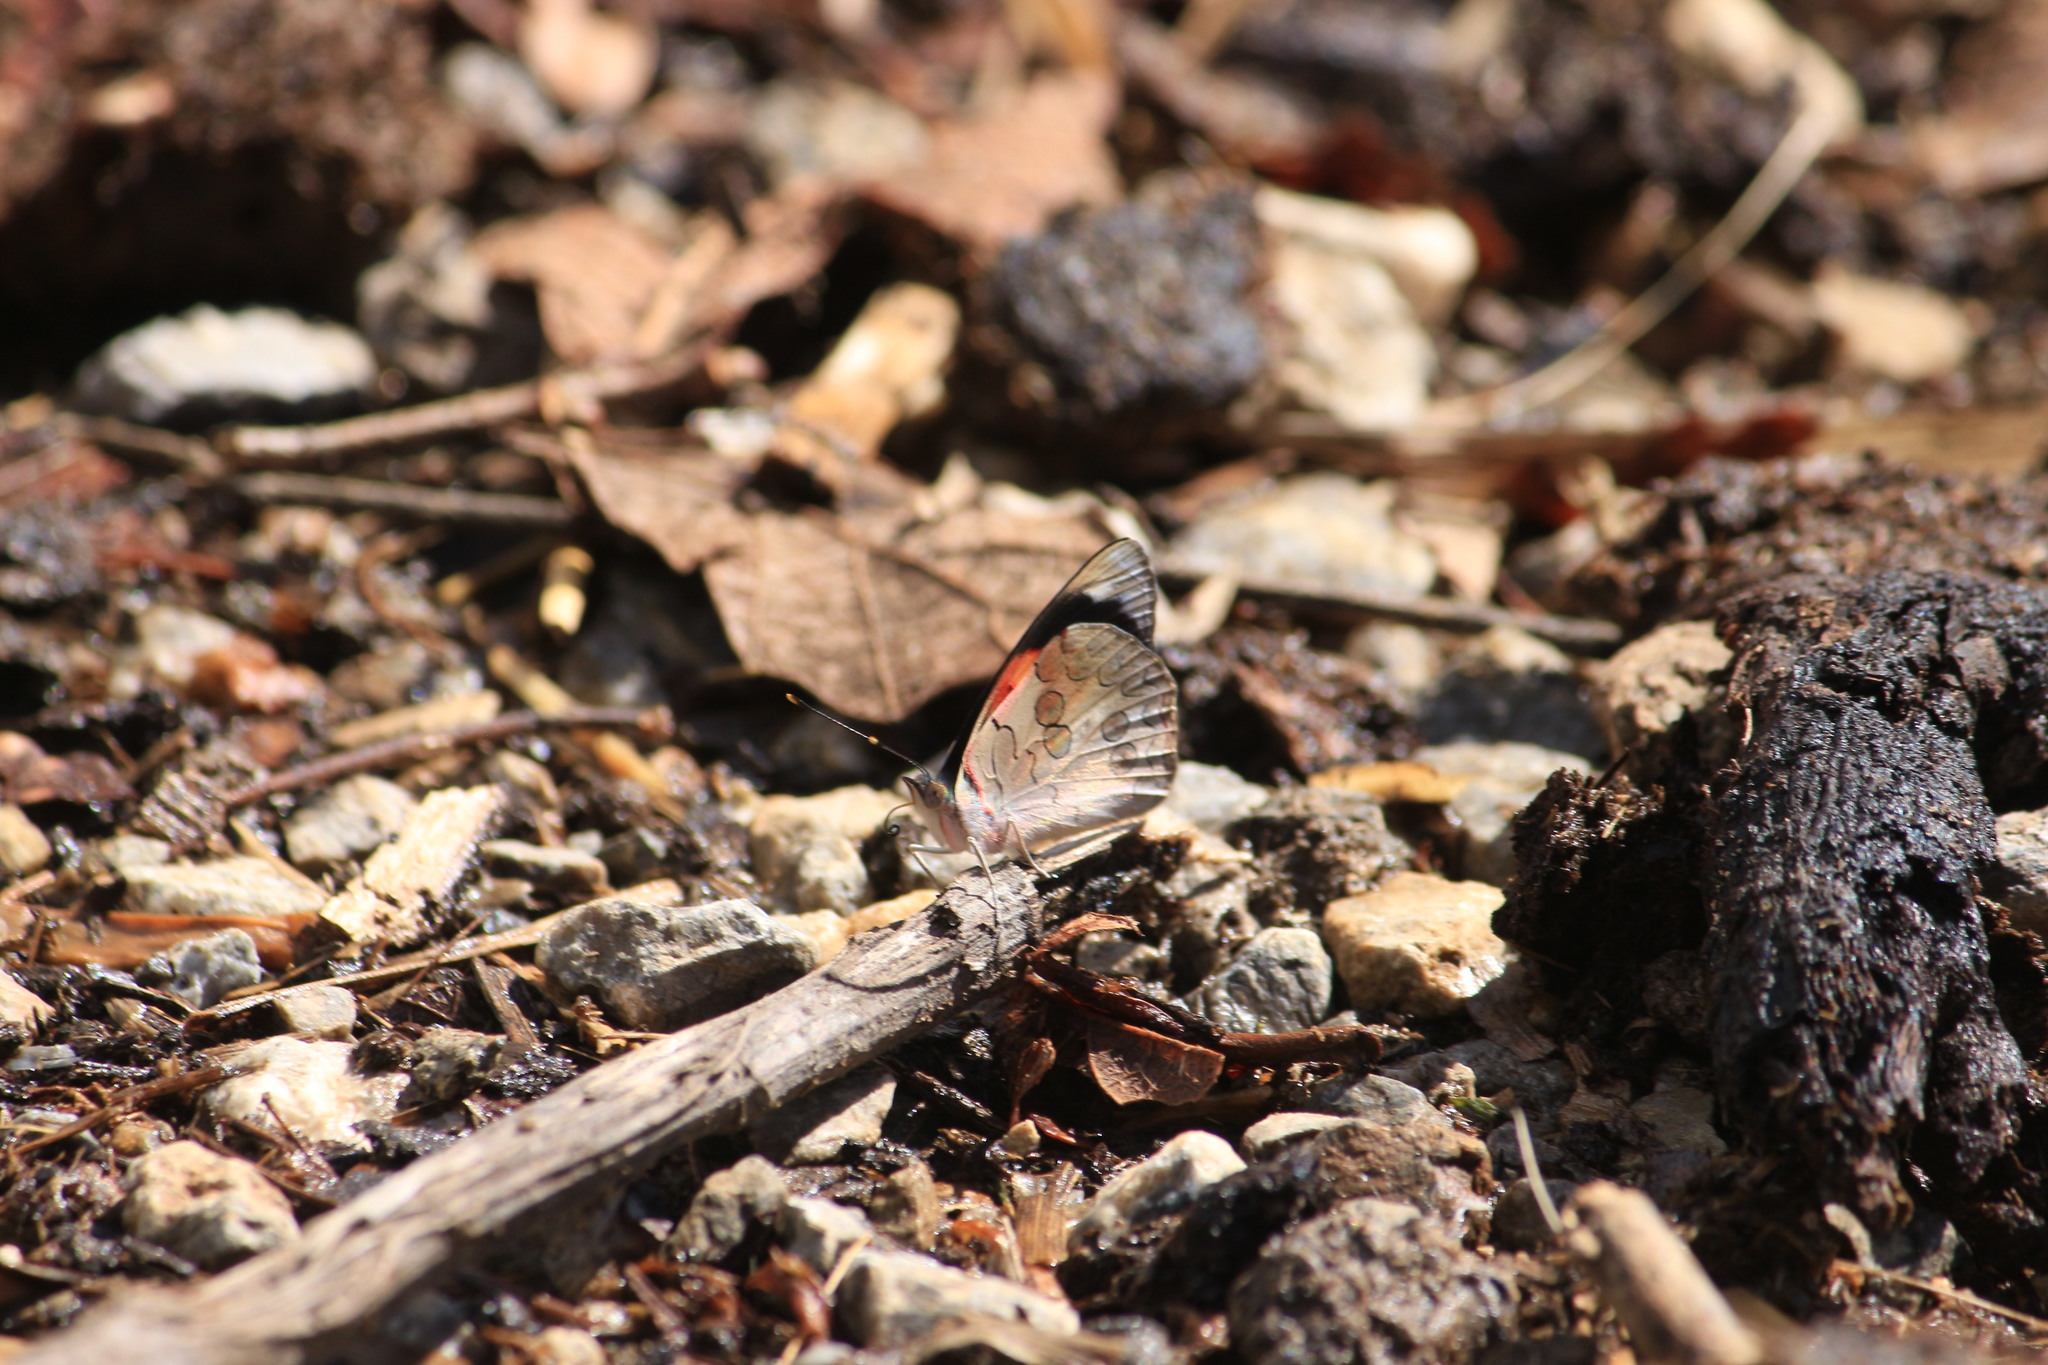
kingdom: Animalia
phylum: Arthropoda
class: Insecta
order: Lepidoptera
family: Nymphalidae
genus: Diaethria
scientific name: Diaethria pandama
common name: Orange-striped eighty-eight
